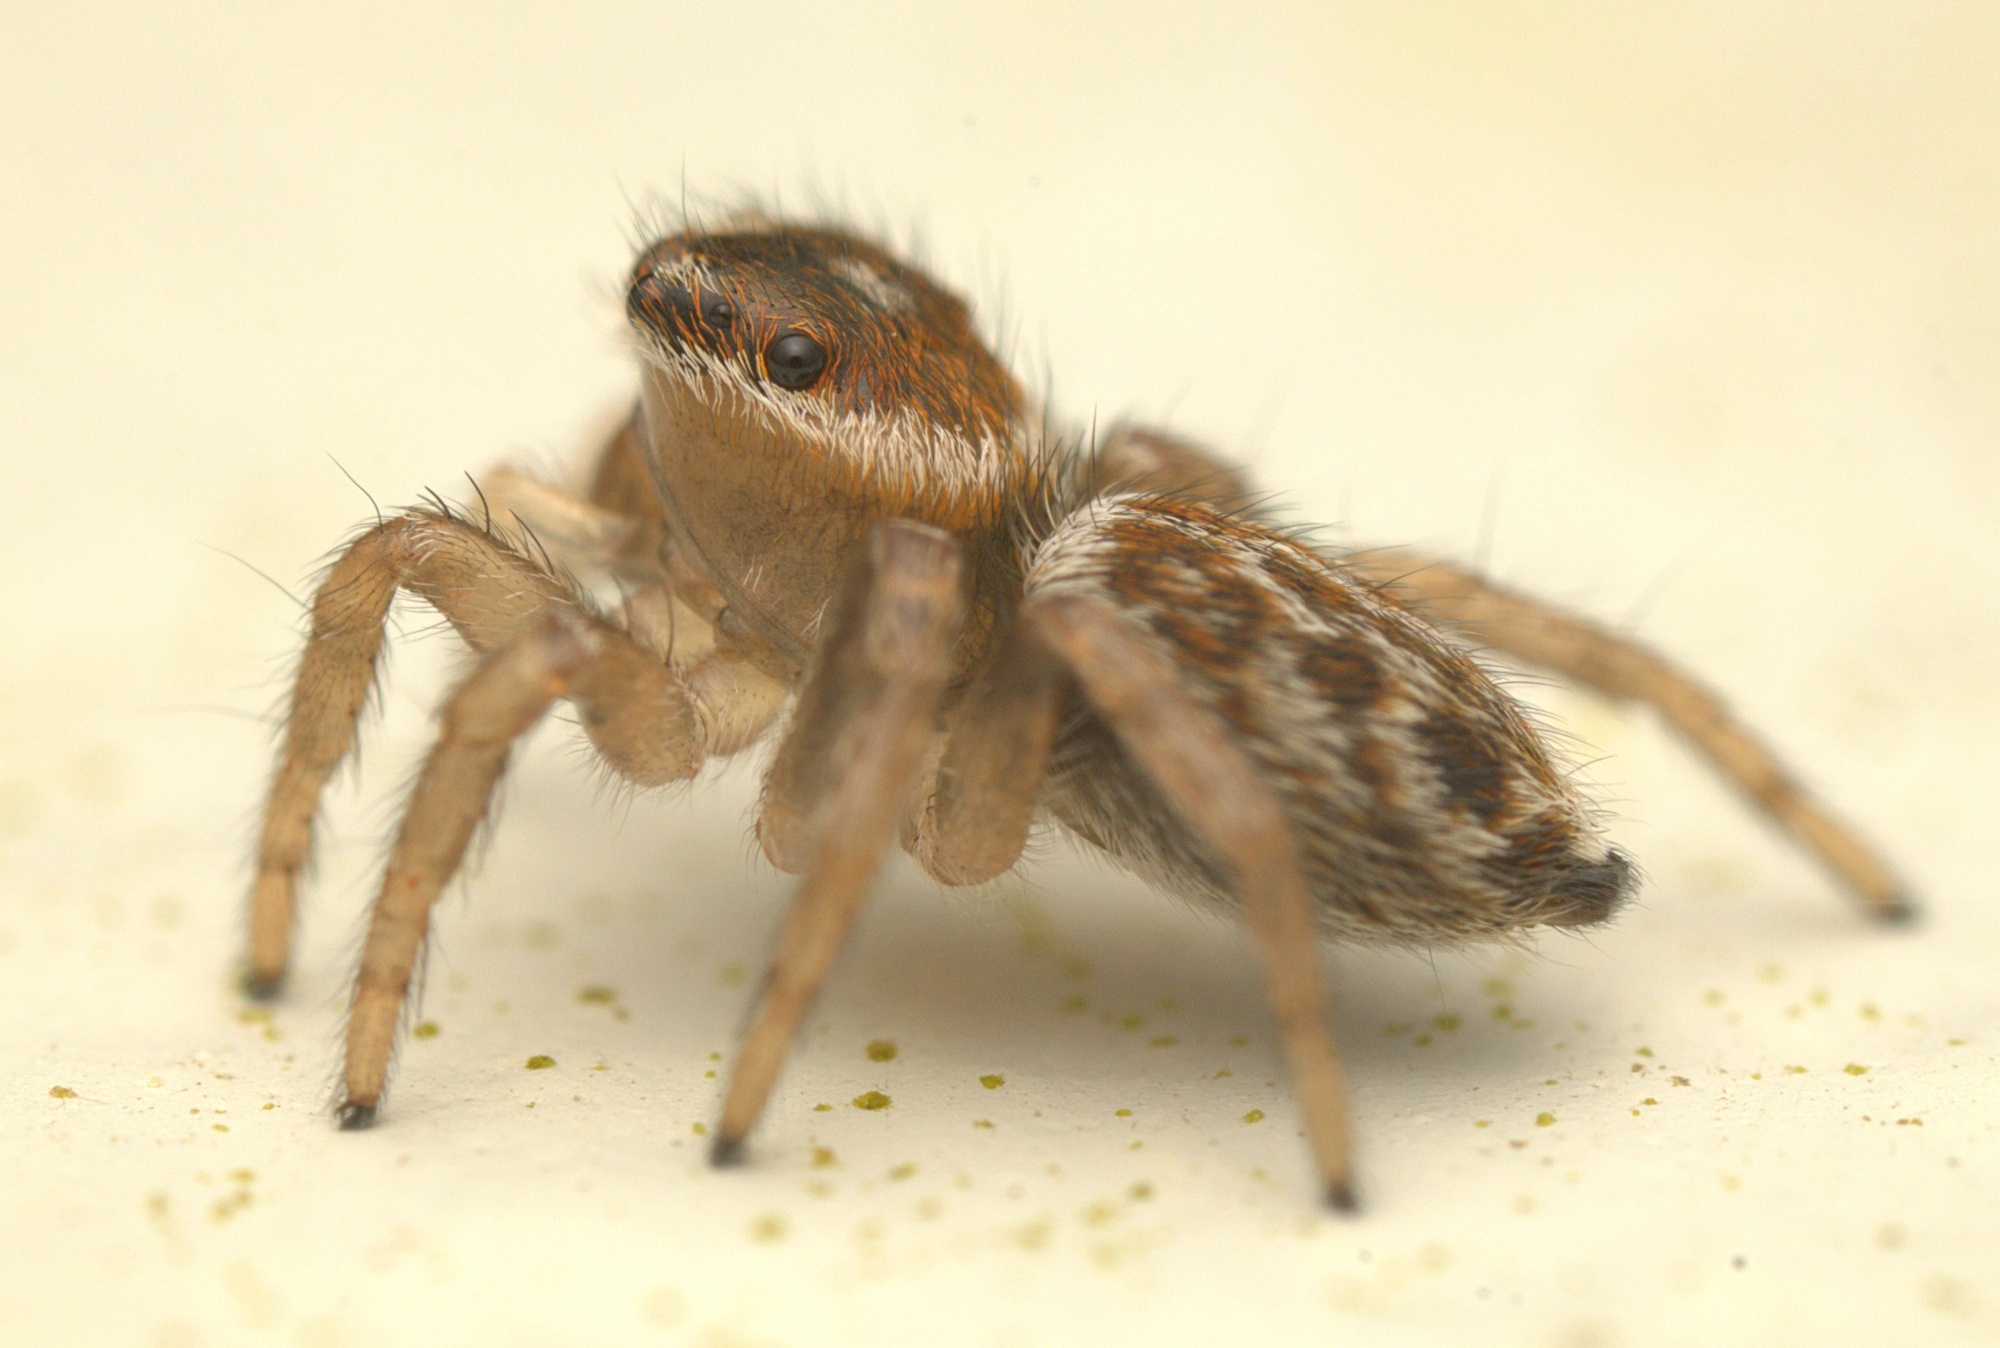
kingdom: Animalia
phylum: Arthropoda
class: Arachnida
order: Araneae
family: Salticidae
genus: Maratus
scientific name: Maratus griseus
